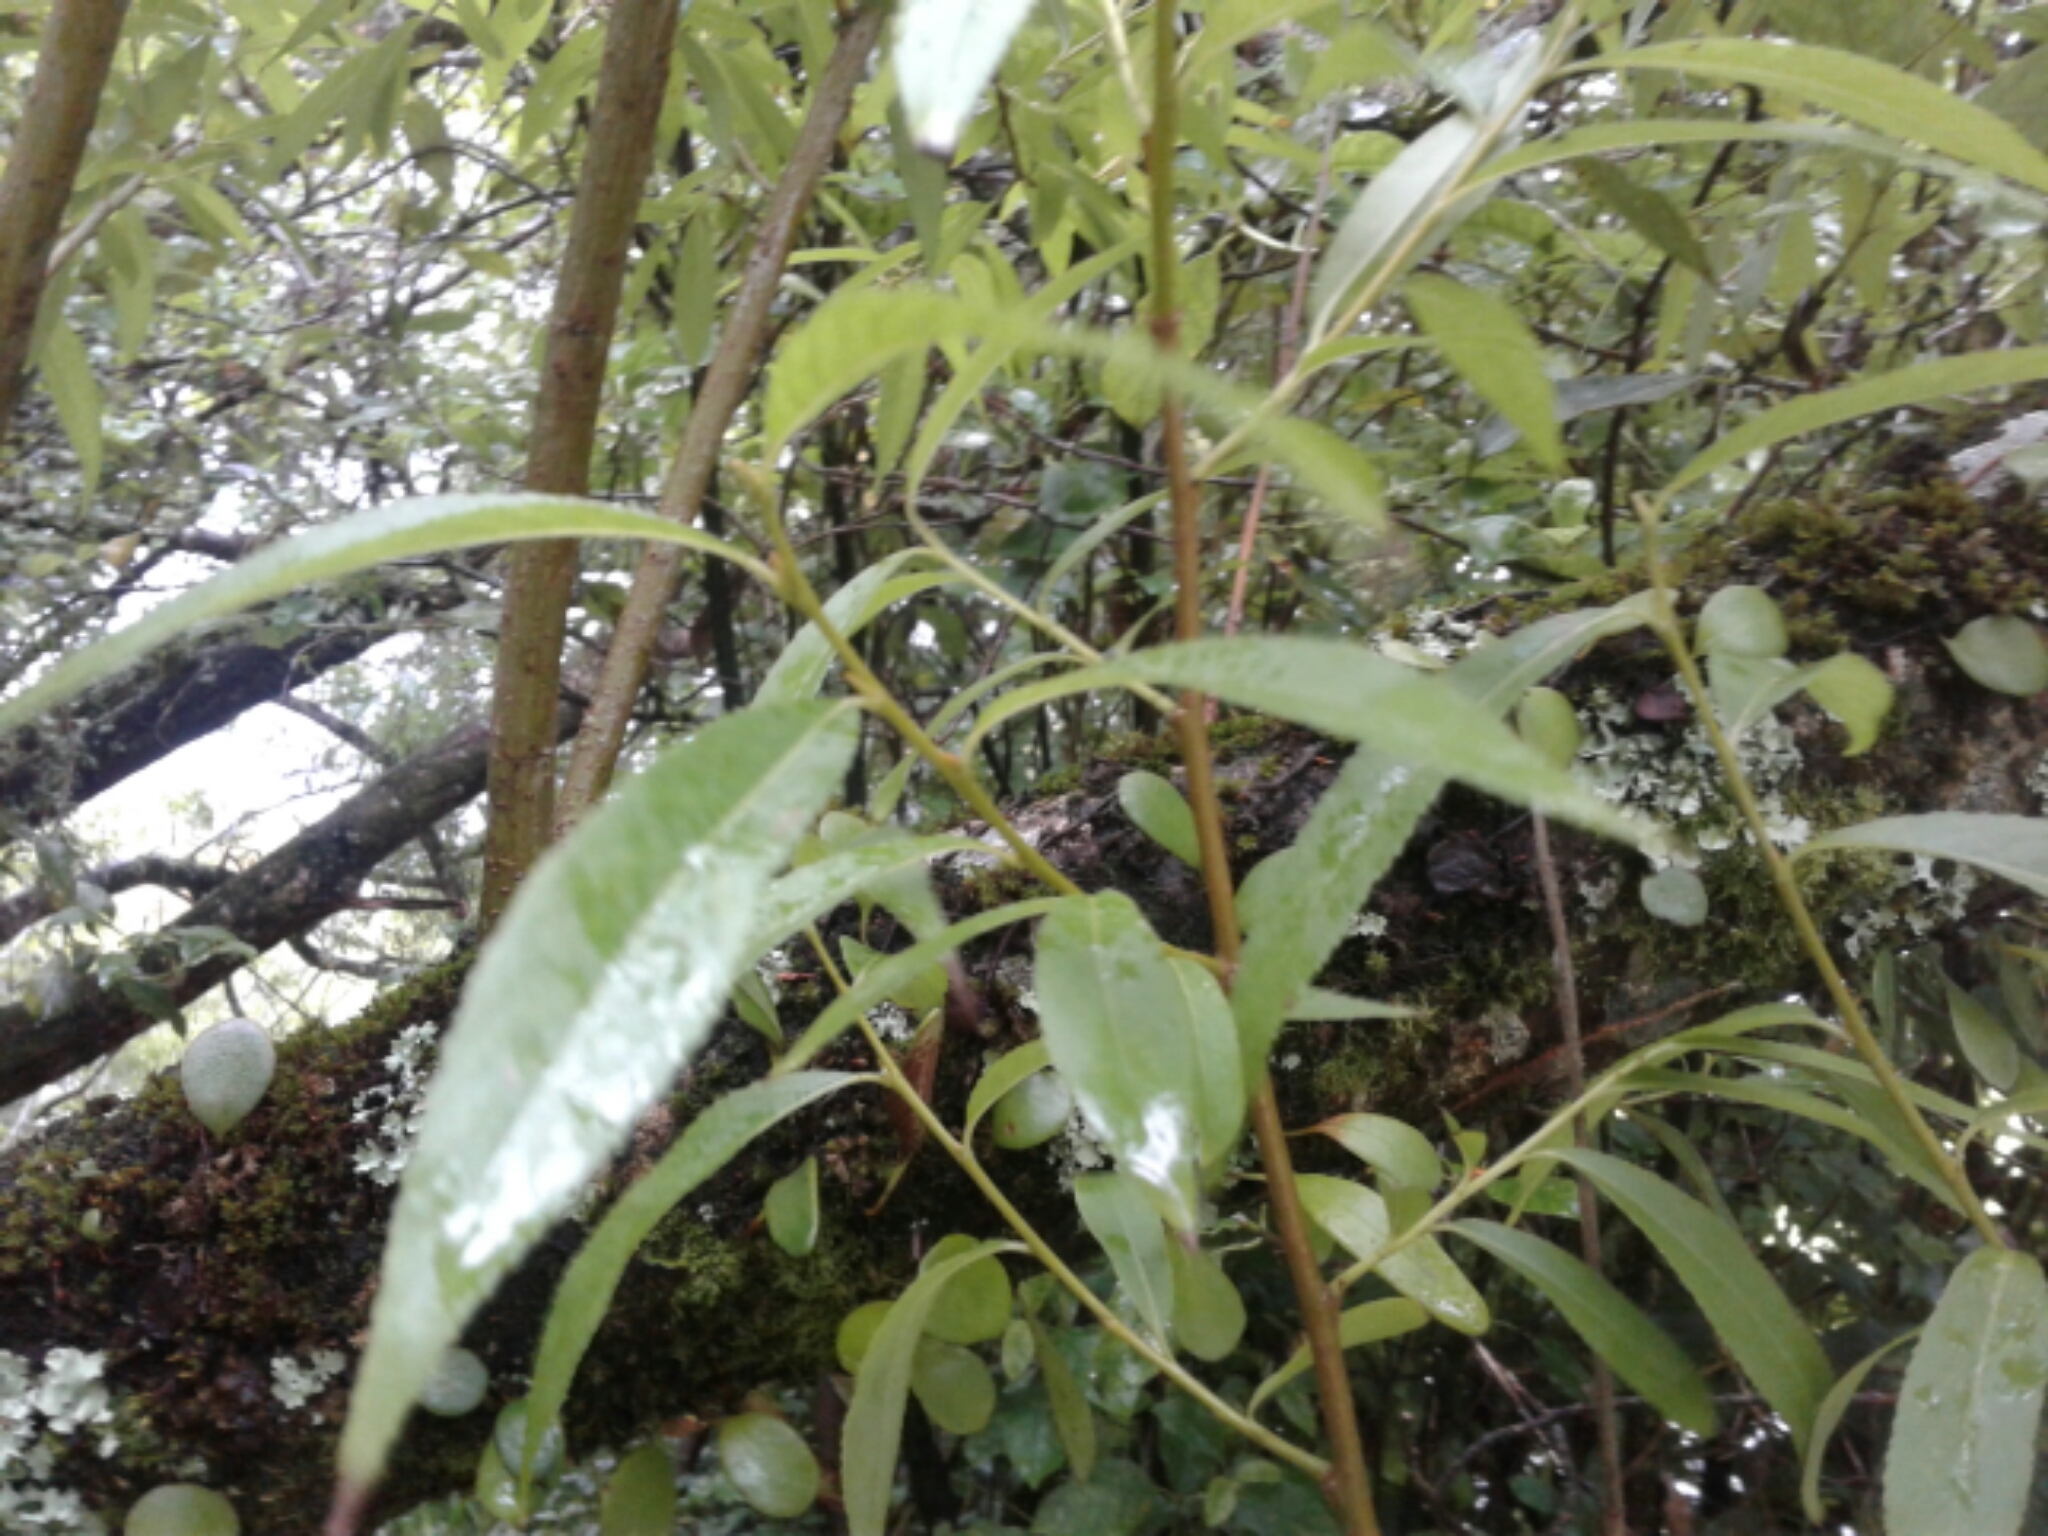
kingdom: Plantae
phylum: Tracheophyta
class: Magnoliopsida
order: Malpighiales
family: Salicaceae
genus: Salix
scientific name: Salix fragilis
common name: Crack willow
